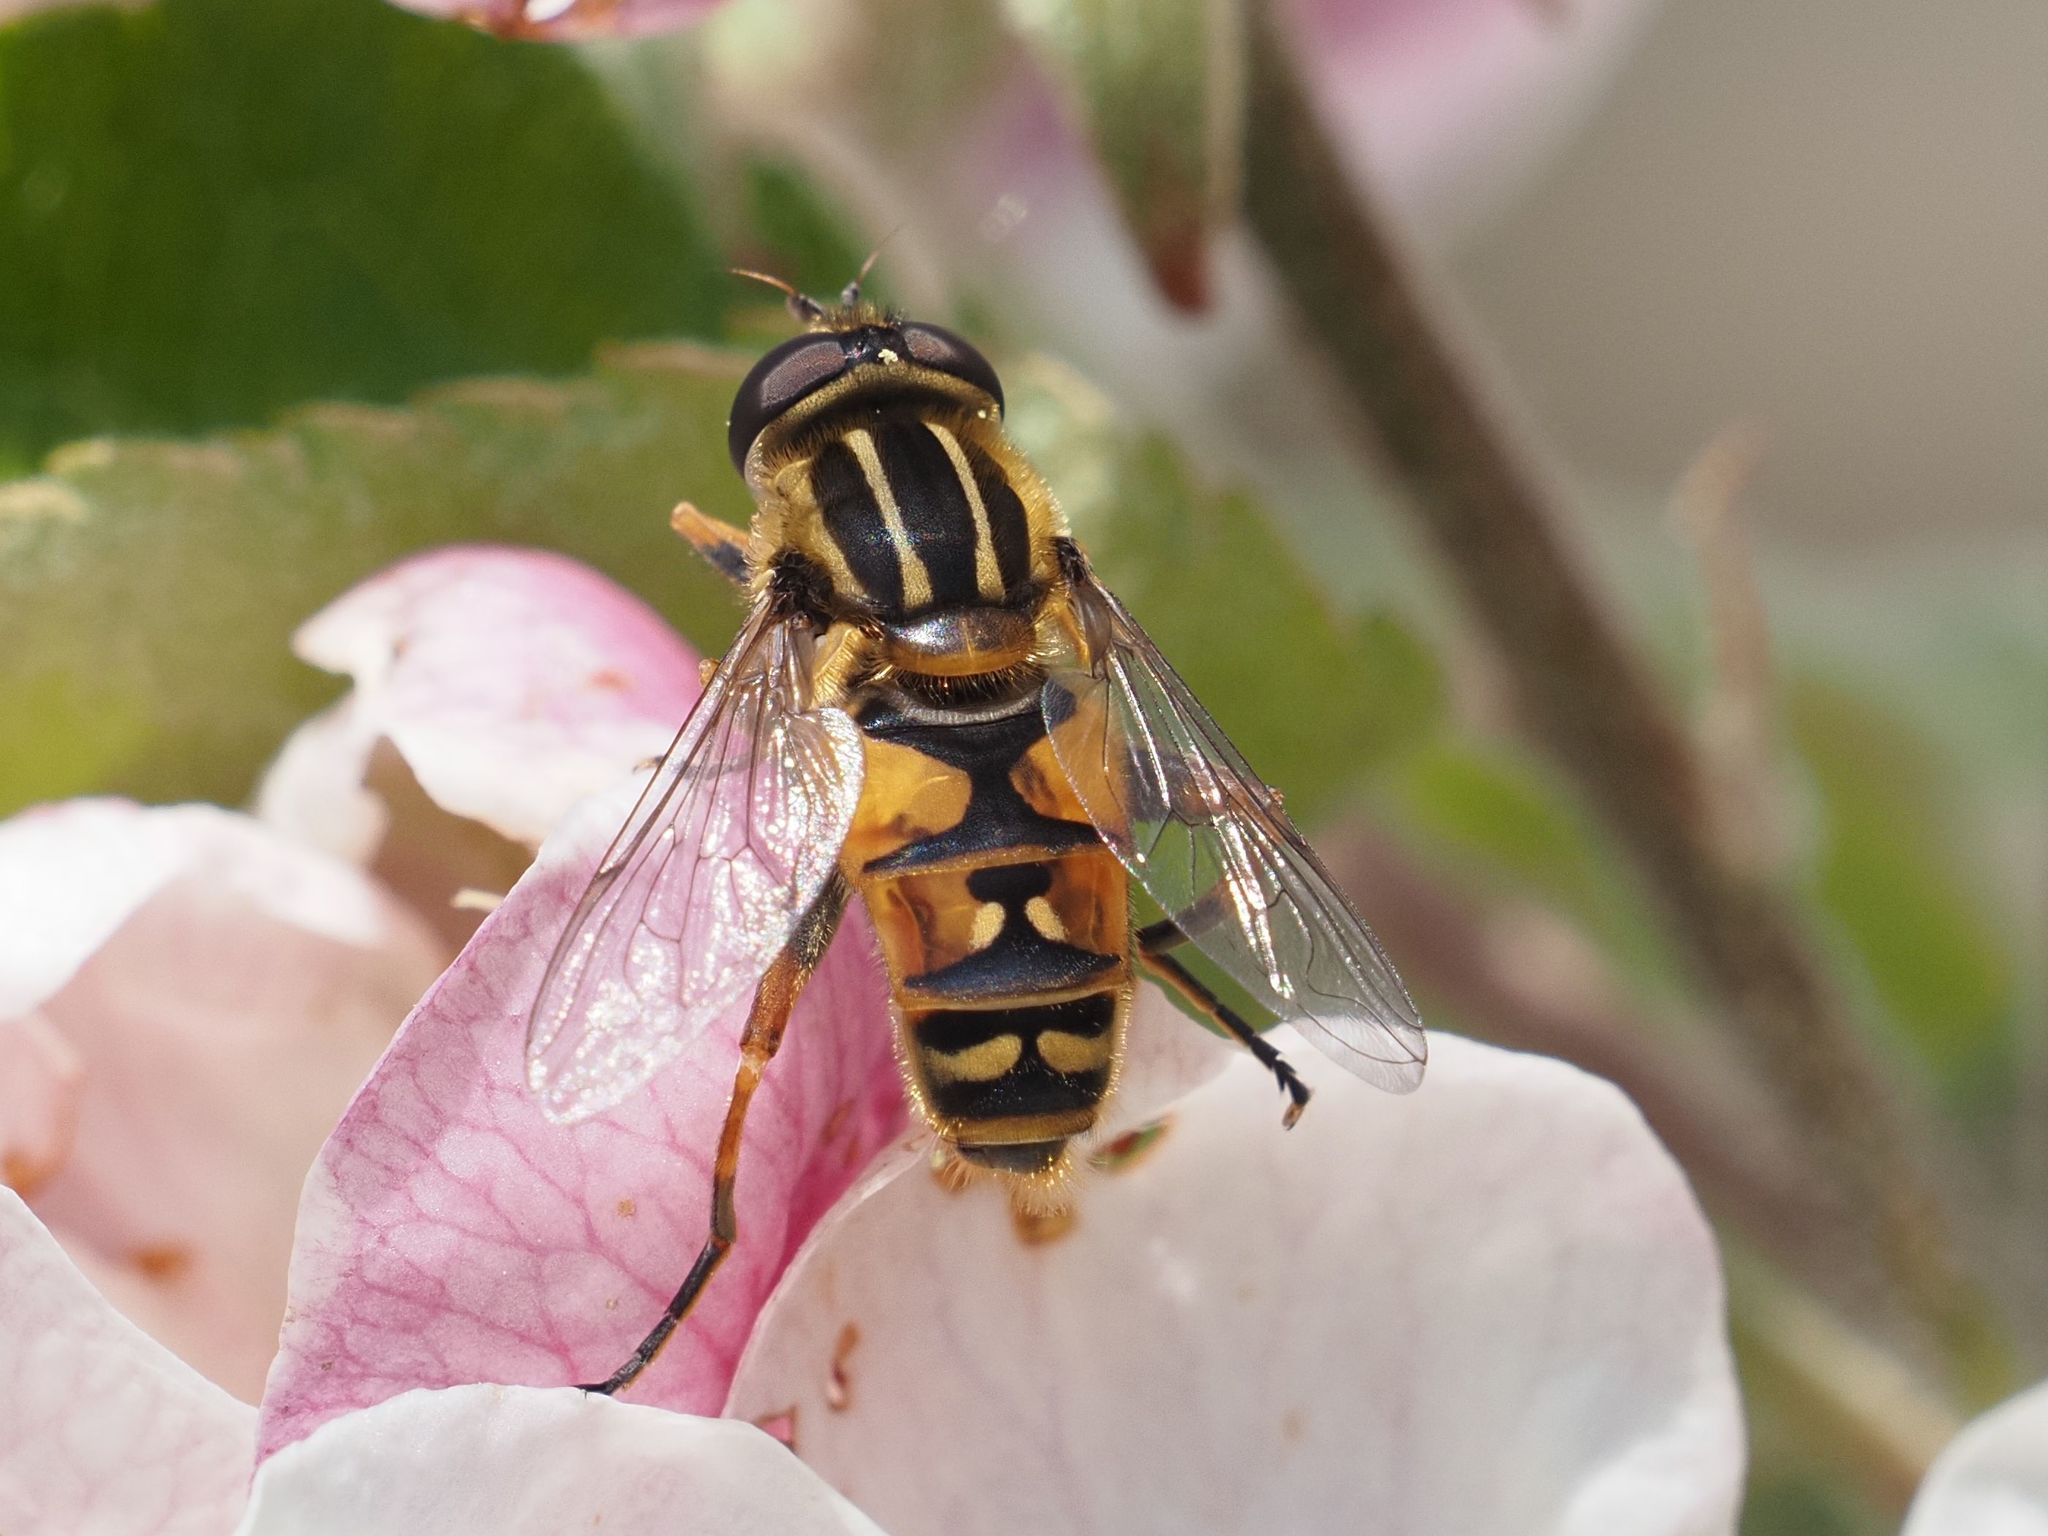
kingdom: Animalia
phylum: Arthropoda
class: Insecta
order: Diptera
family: Syrphidae
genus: Helophilus
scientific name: Helophilus pendulus
